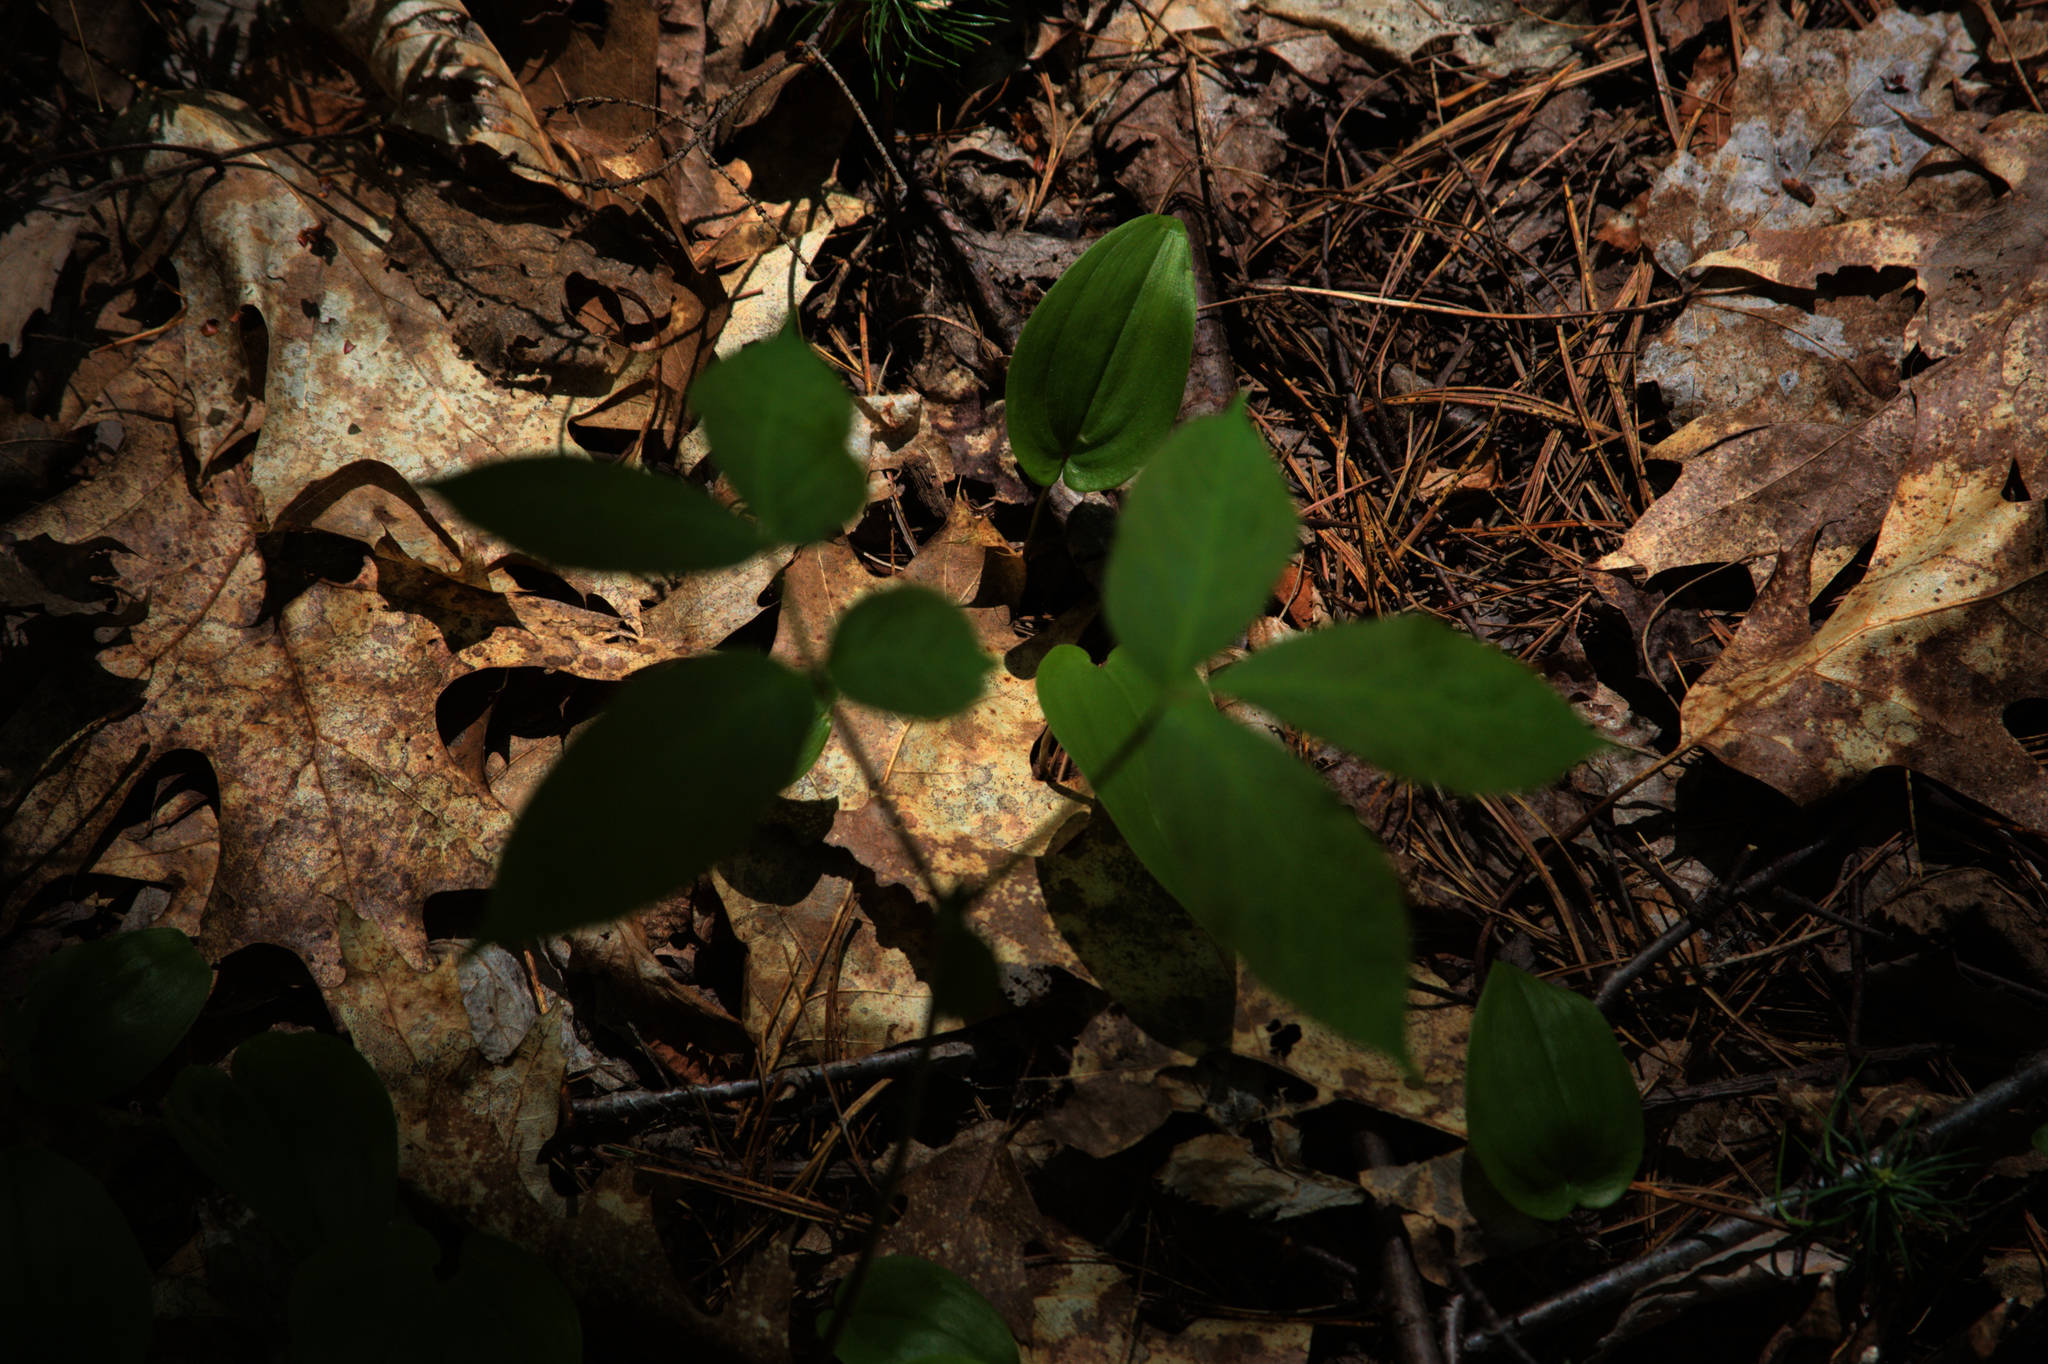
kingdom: Plantae
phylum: Tracheophyta
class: Magnoliopsida
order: Apiales
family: Araliaceae
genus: Aralia
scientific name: Aralia nudicaulis
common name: Wild sarsaparilla
